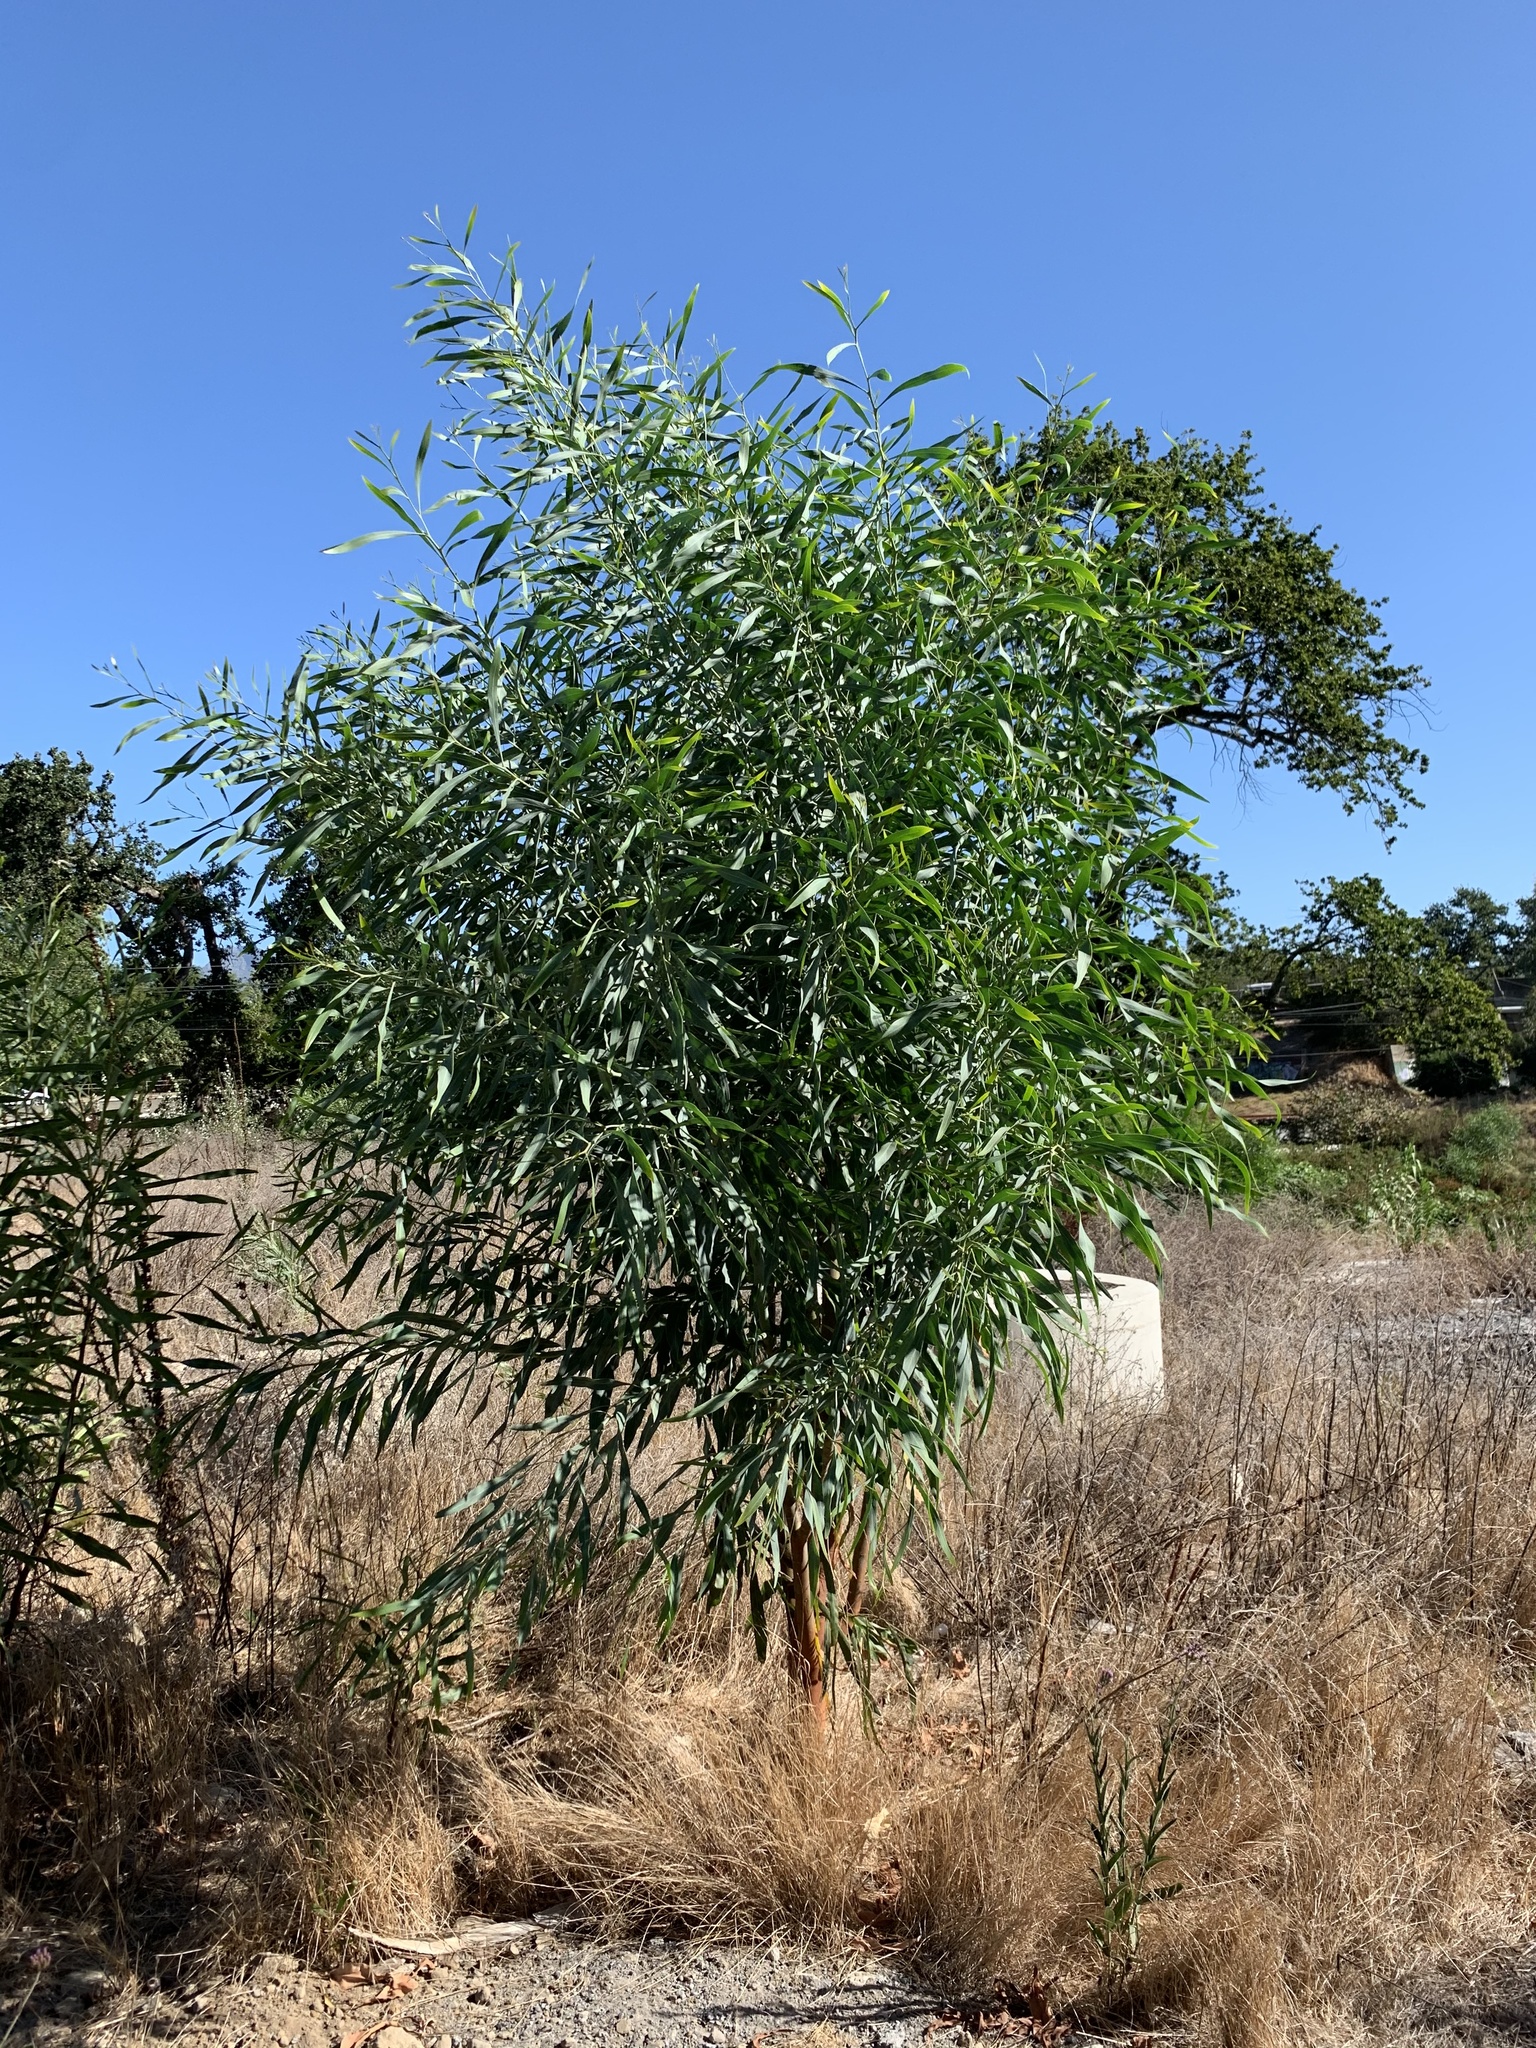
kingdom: Plantae
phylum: Tracheophyta
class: Magnoliopsida
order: Fabales
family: Fabaceae
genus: Acacia
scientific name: Acacia saligna
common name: Orange wattle
